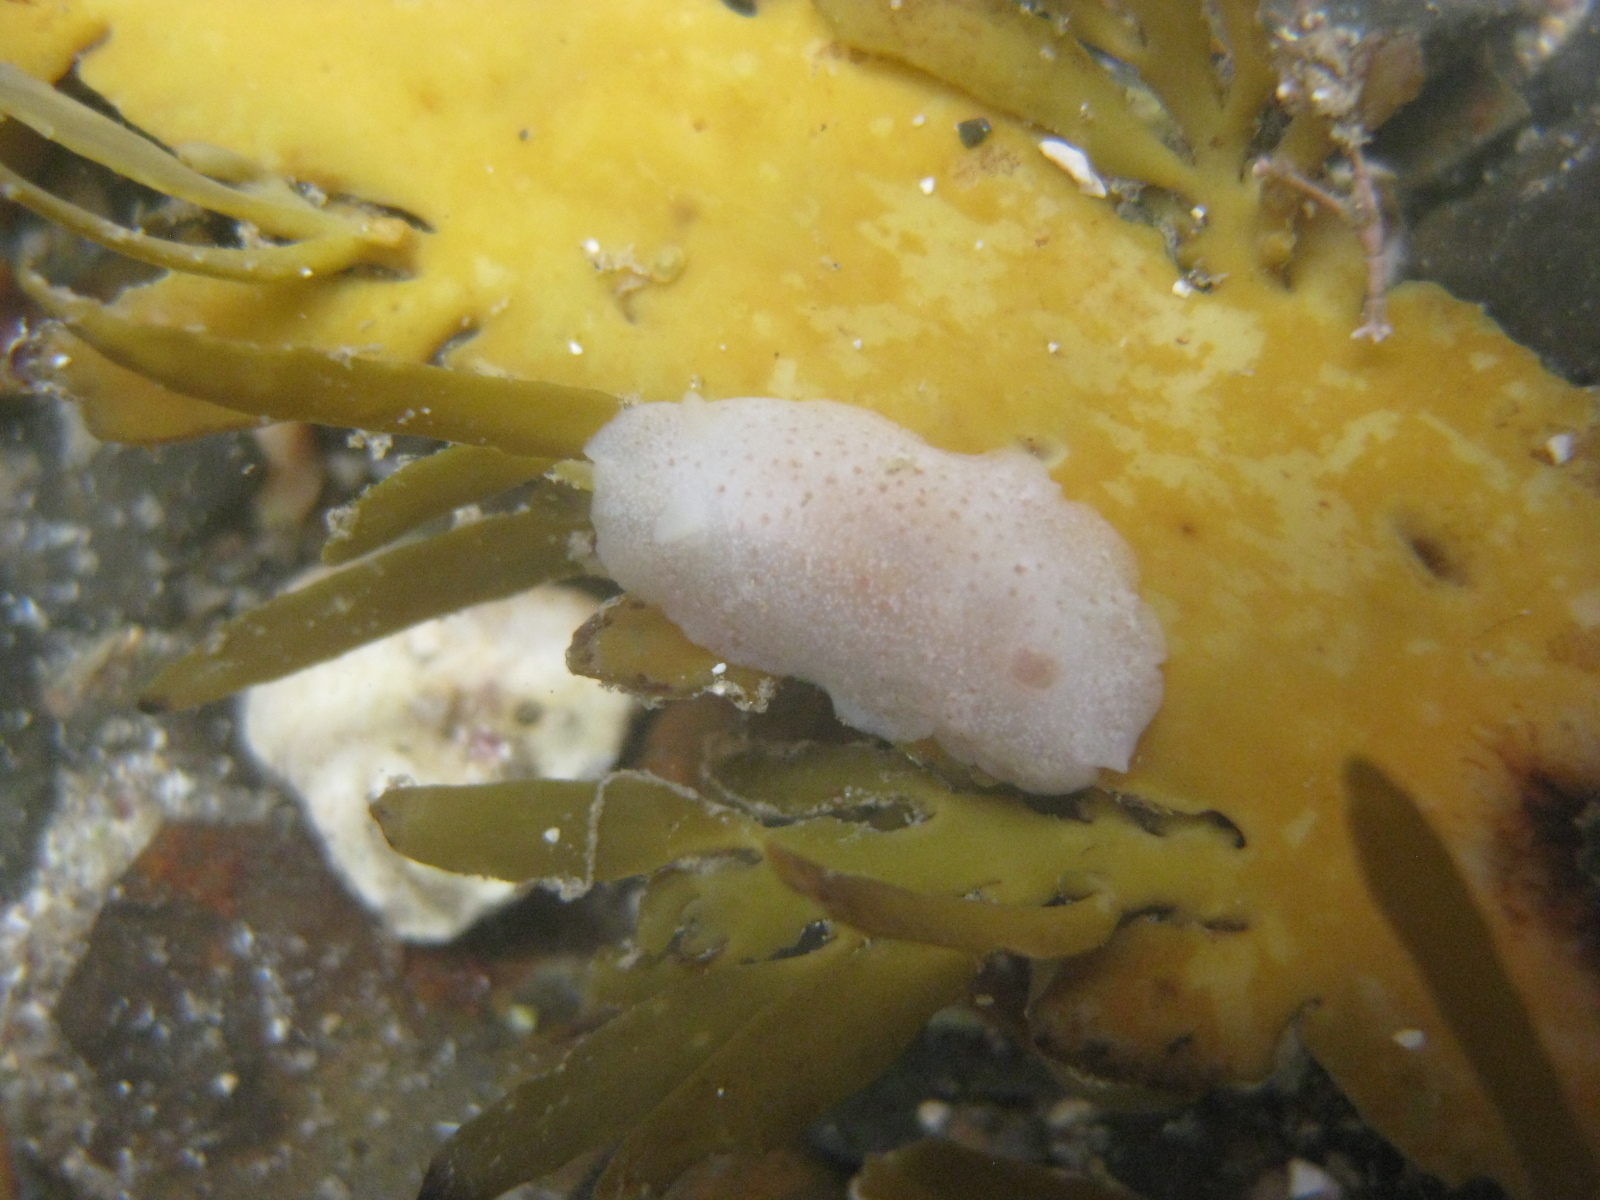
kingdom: Animalia
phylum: Mollusca
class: Gastropoda
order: Nudibranchia
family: Dendrodorididae
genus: Dendrodoris
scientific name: Dendrodoris citrina
